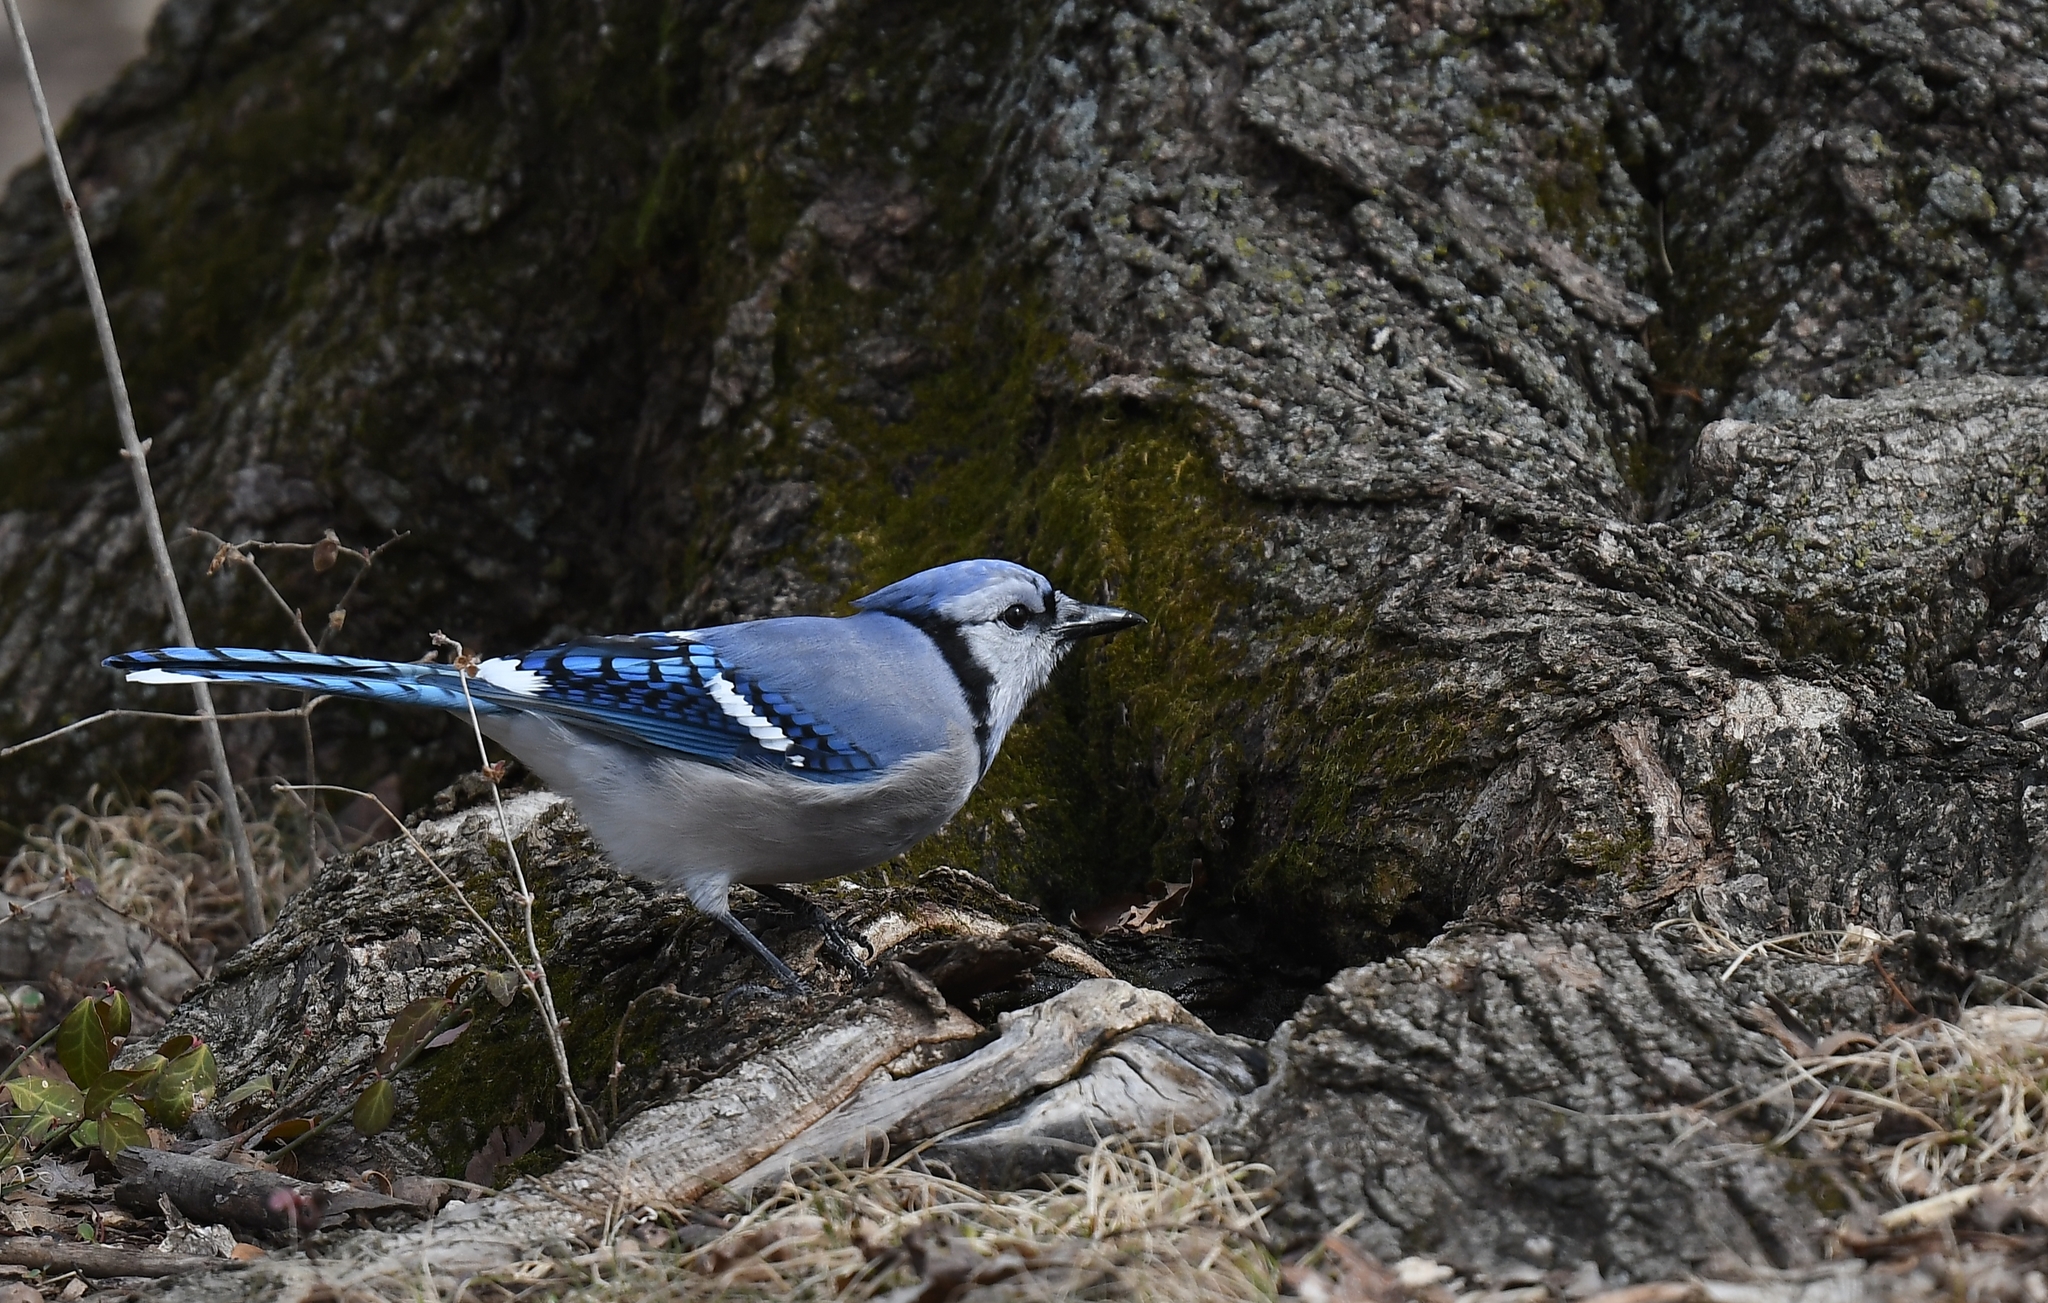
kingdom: Animalia
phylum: Chordata
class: Aves
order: Passeriformes
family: Corvidae
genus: Cyanocitta
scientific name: Cyanocitta cristata
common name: Blue jay
